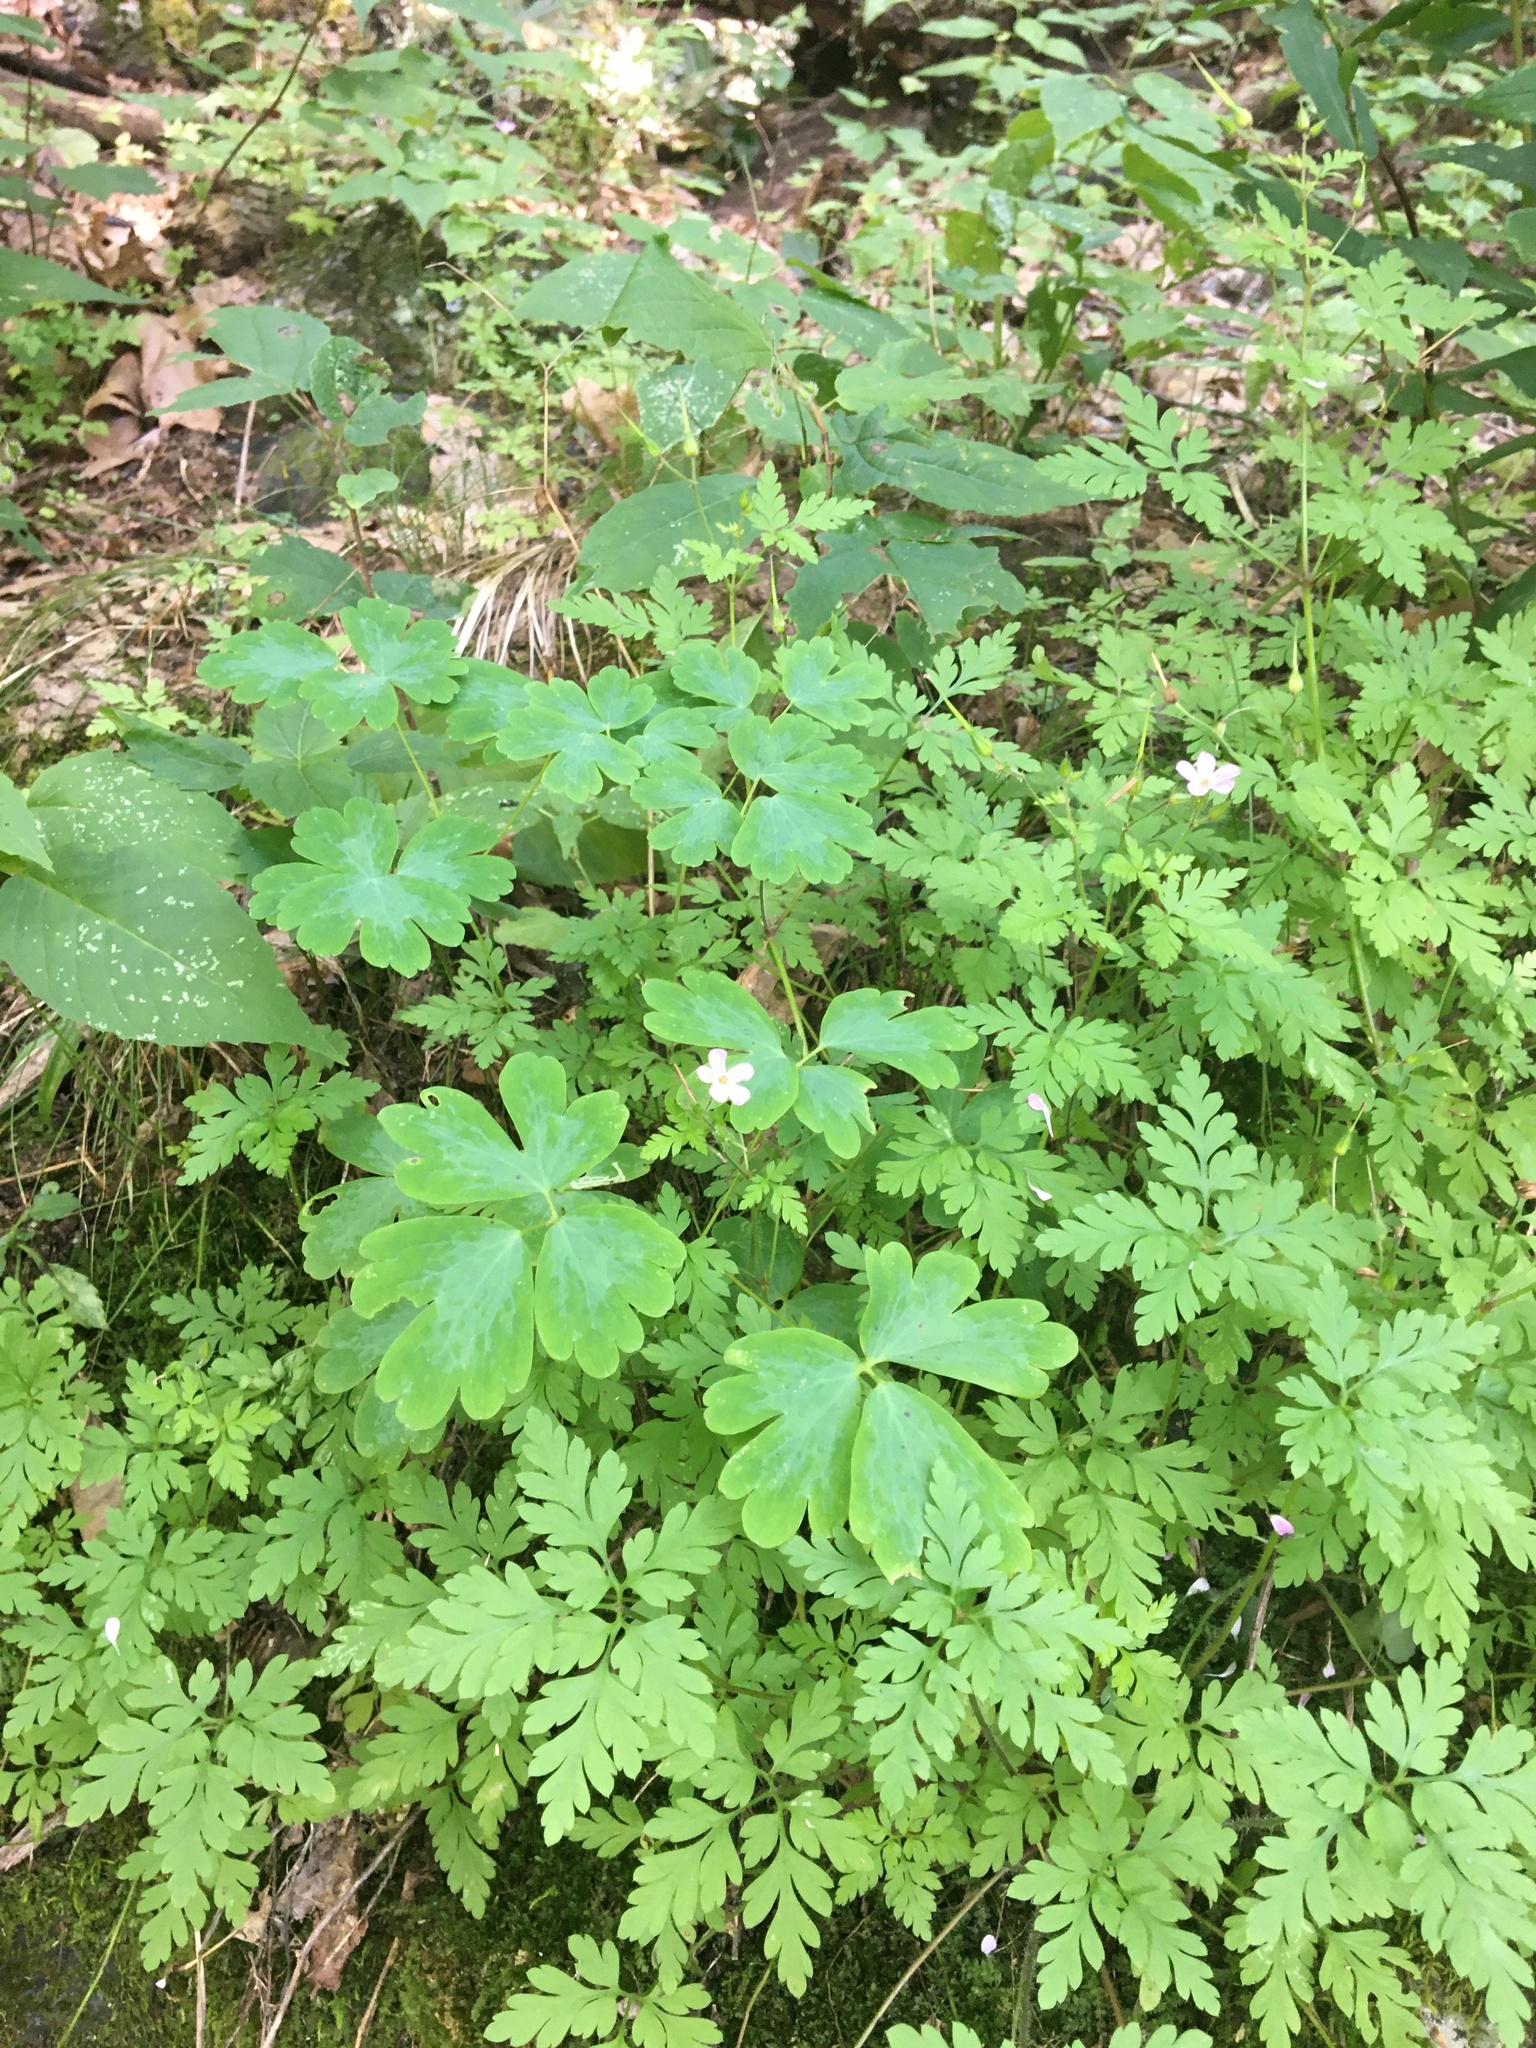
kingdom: Plantae
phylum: Tracheophyta
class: Magnoliopsida
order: Geraniales
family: Geraniaceae
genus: Geranium
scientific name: Geranium robertianum
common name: Herb-robert
